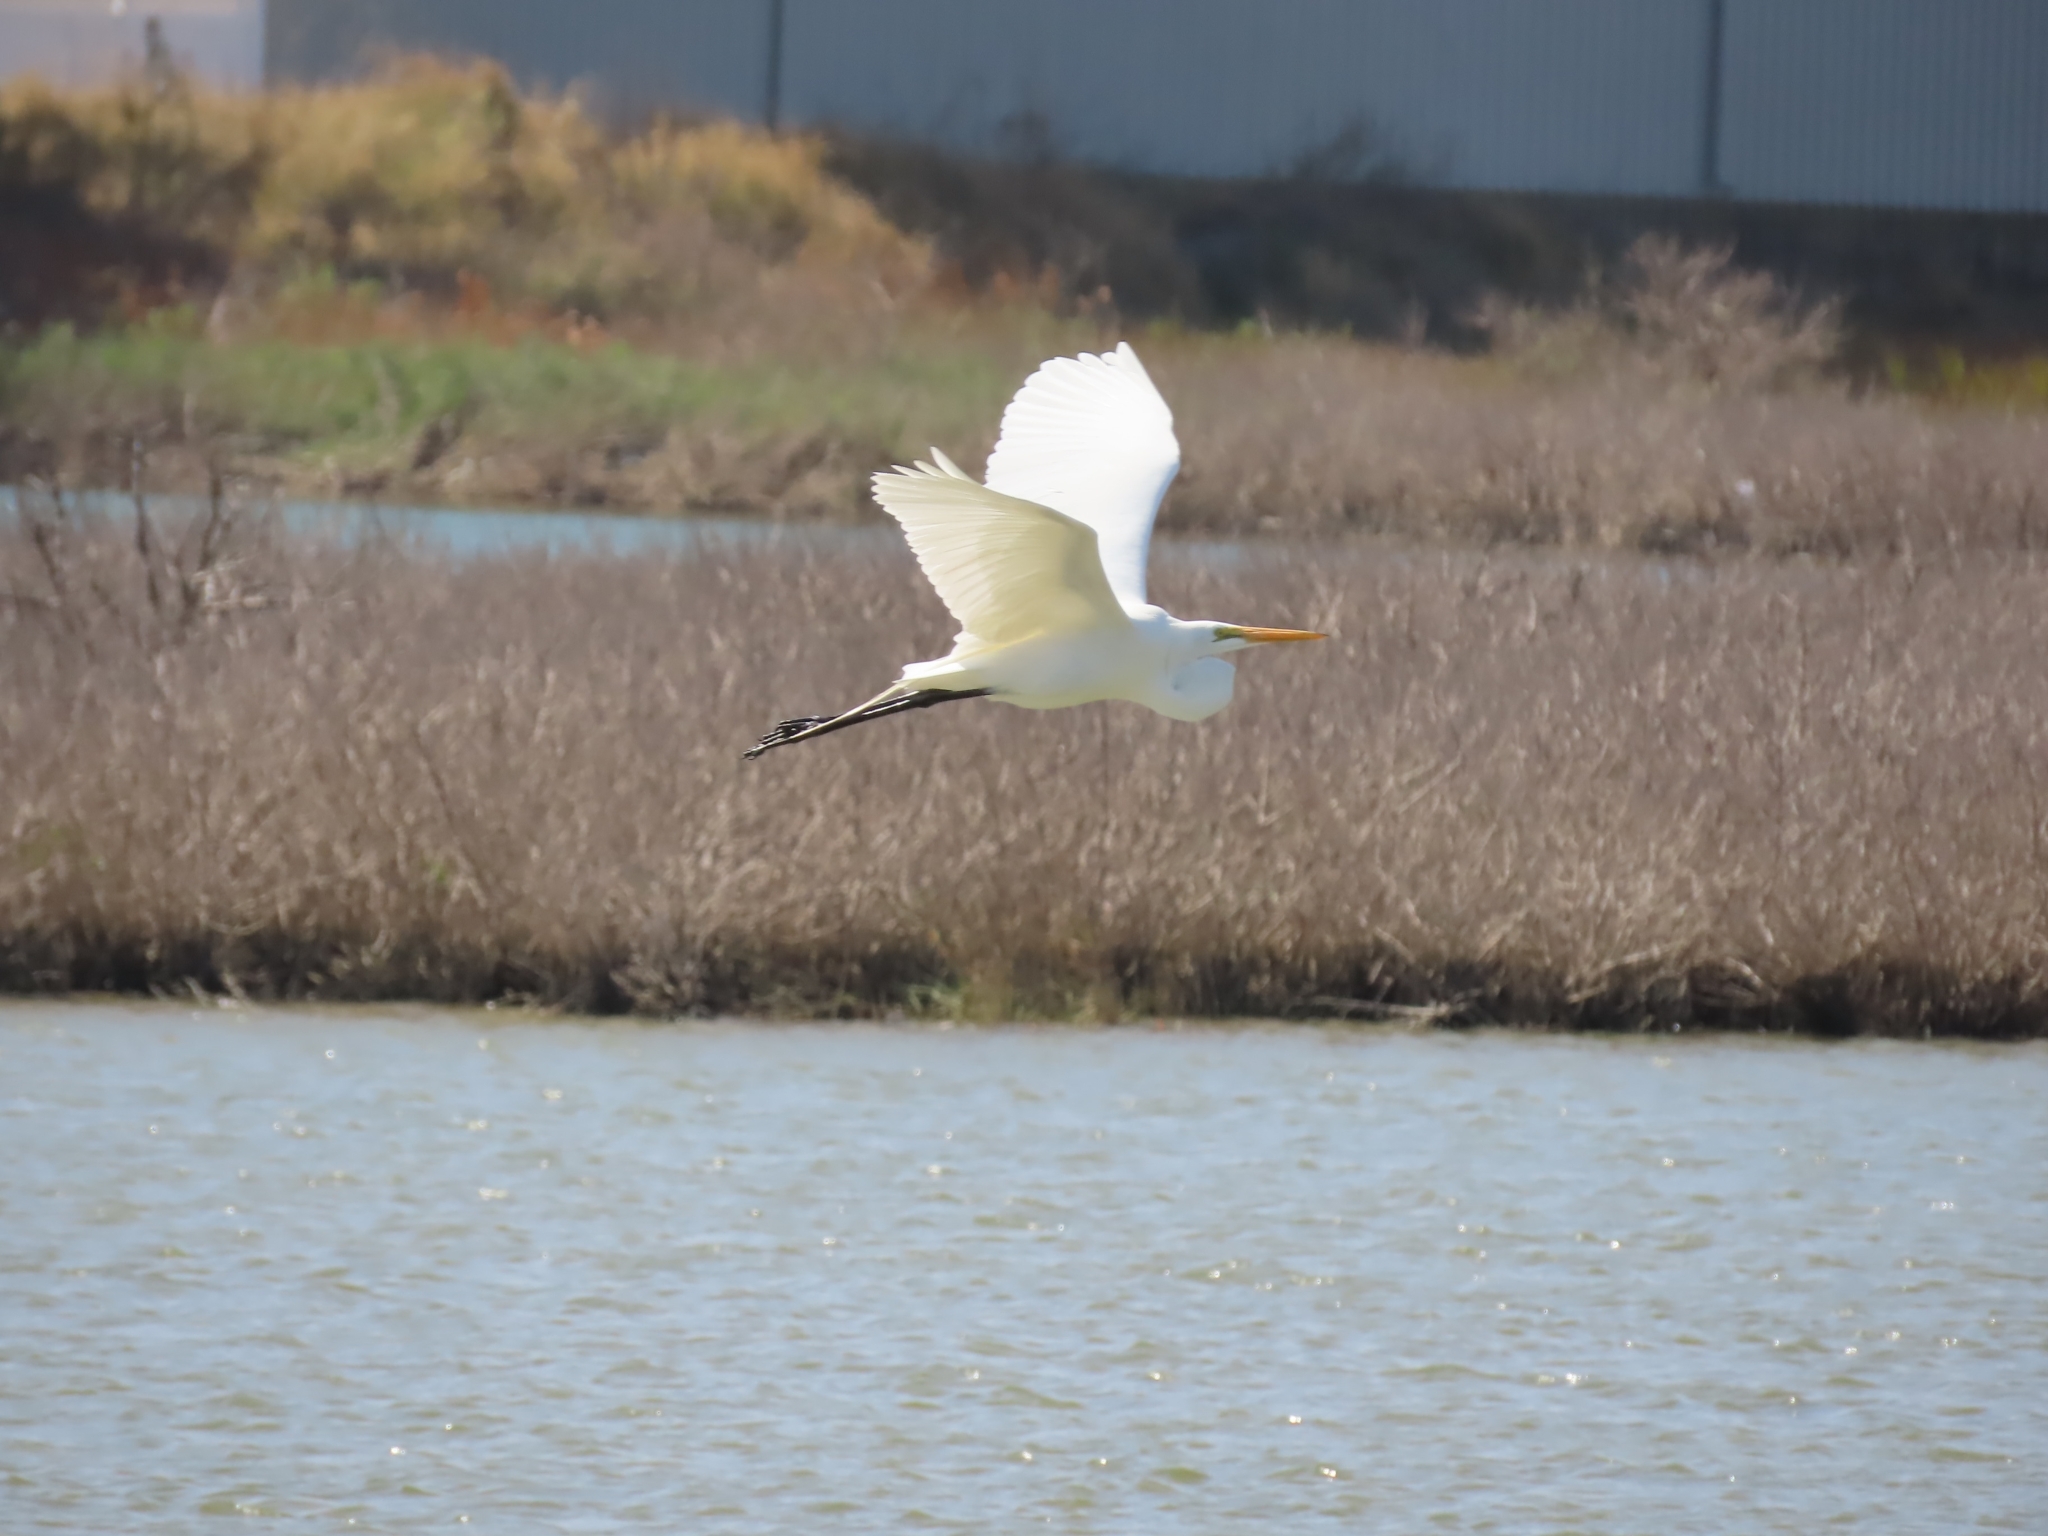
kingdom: Animalia
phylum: Chordata
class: Aves
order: Pelecaniformes
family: Ardeidae
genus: Ardea
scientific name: Ardea alba
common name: Great egret
